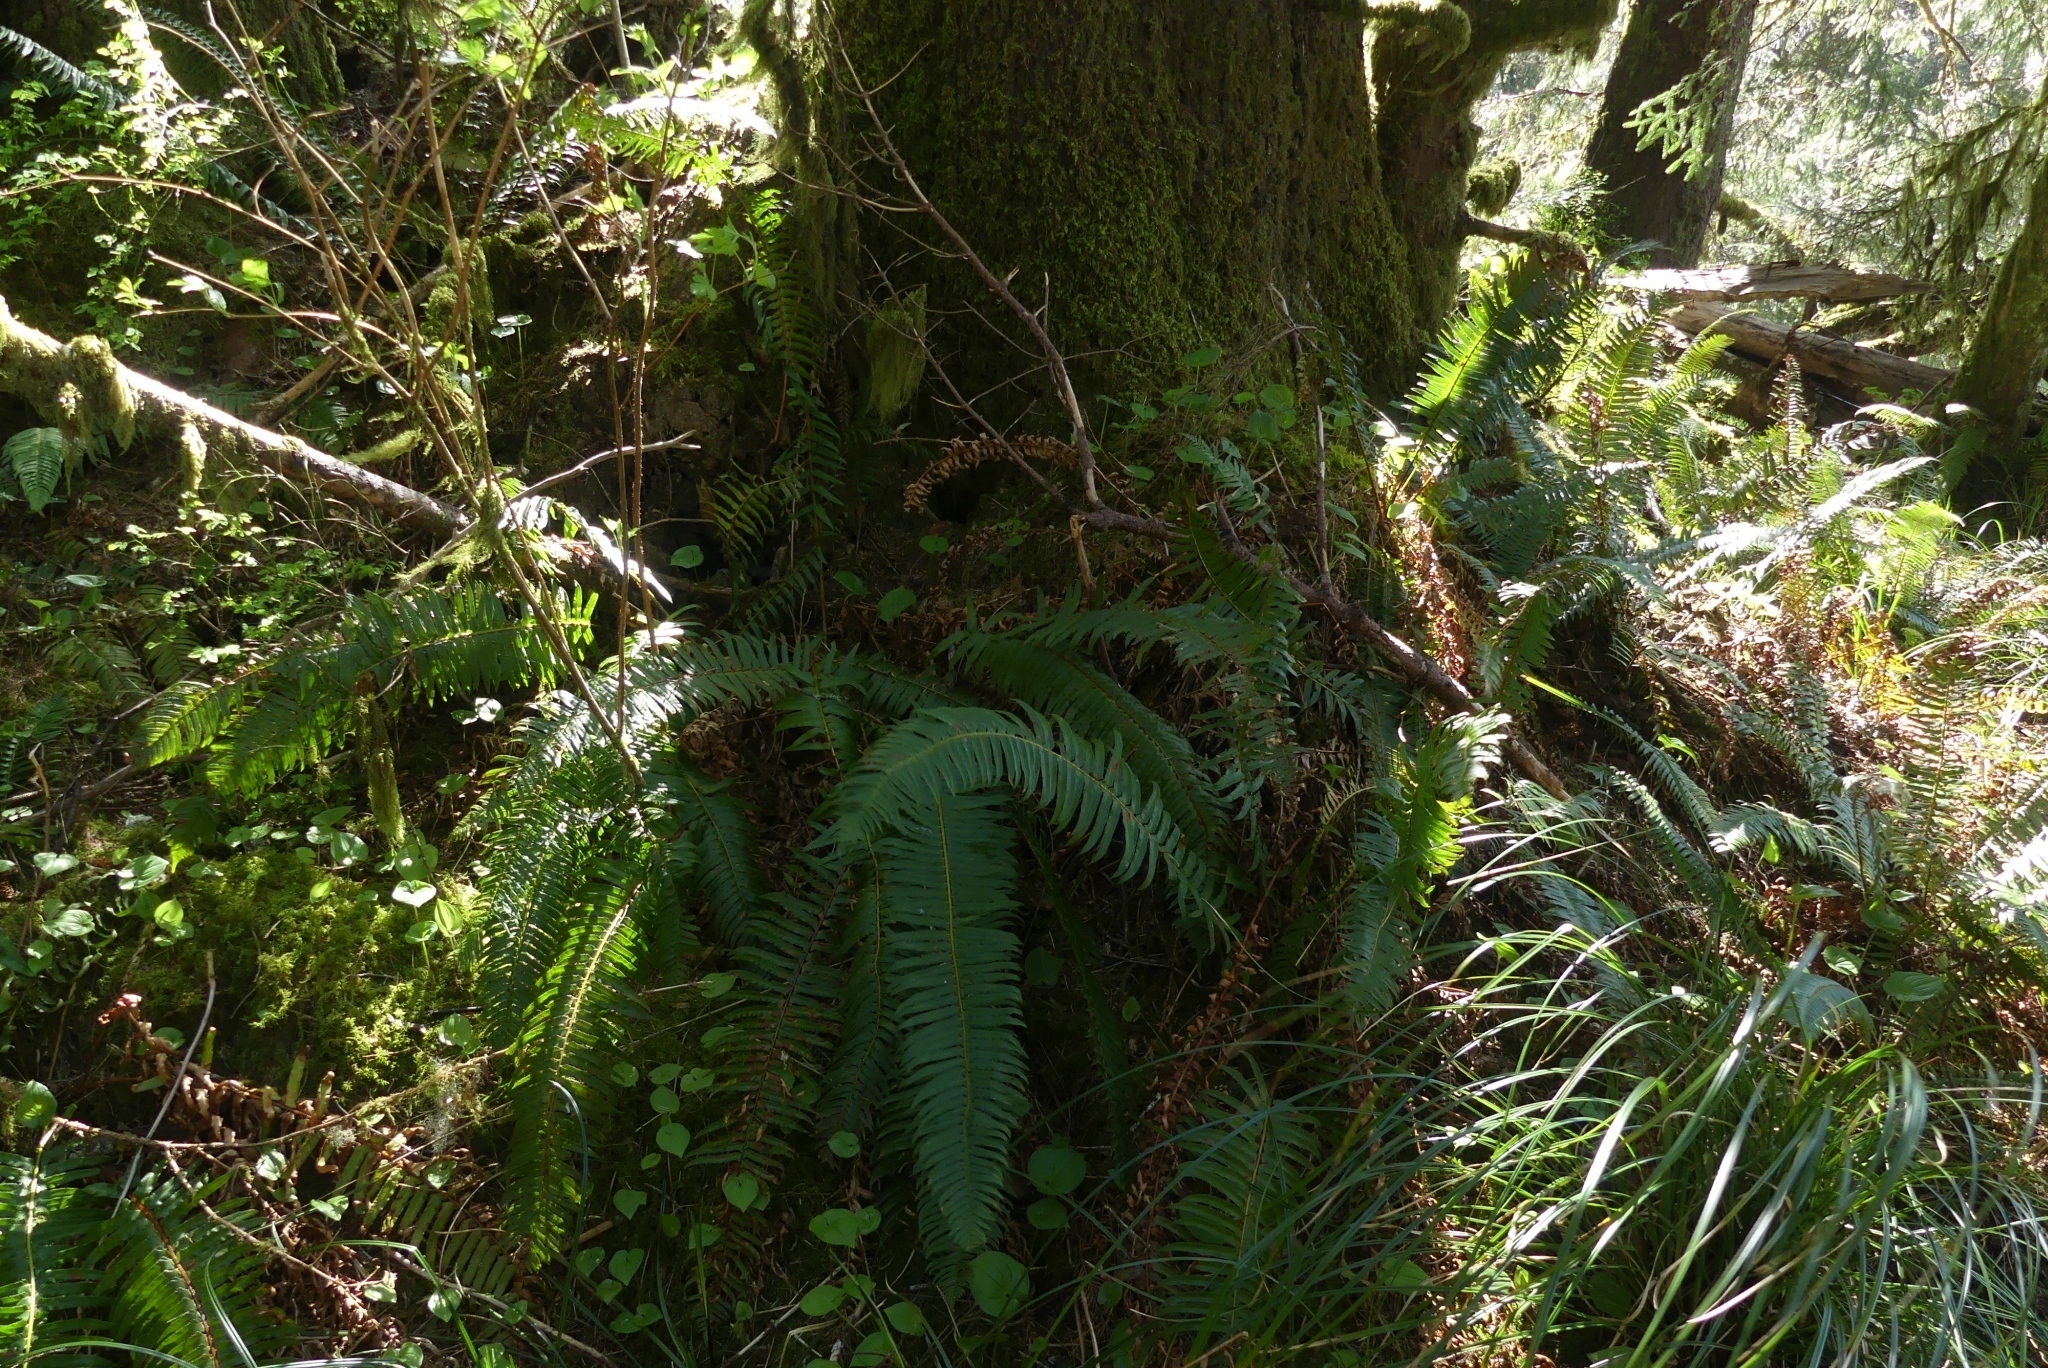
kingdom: Plantae
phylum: Tracheophyta
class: Polypodiopsida
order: Polypodiales
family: Dryopteridaceae
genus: Polystichum
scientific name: Polystichum munitum
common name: Western sword-fern
